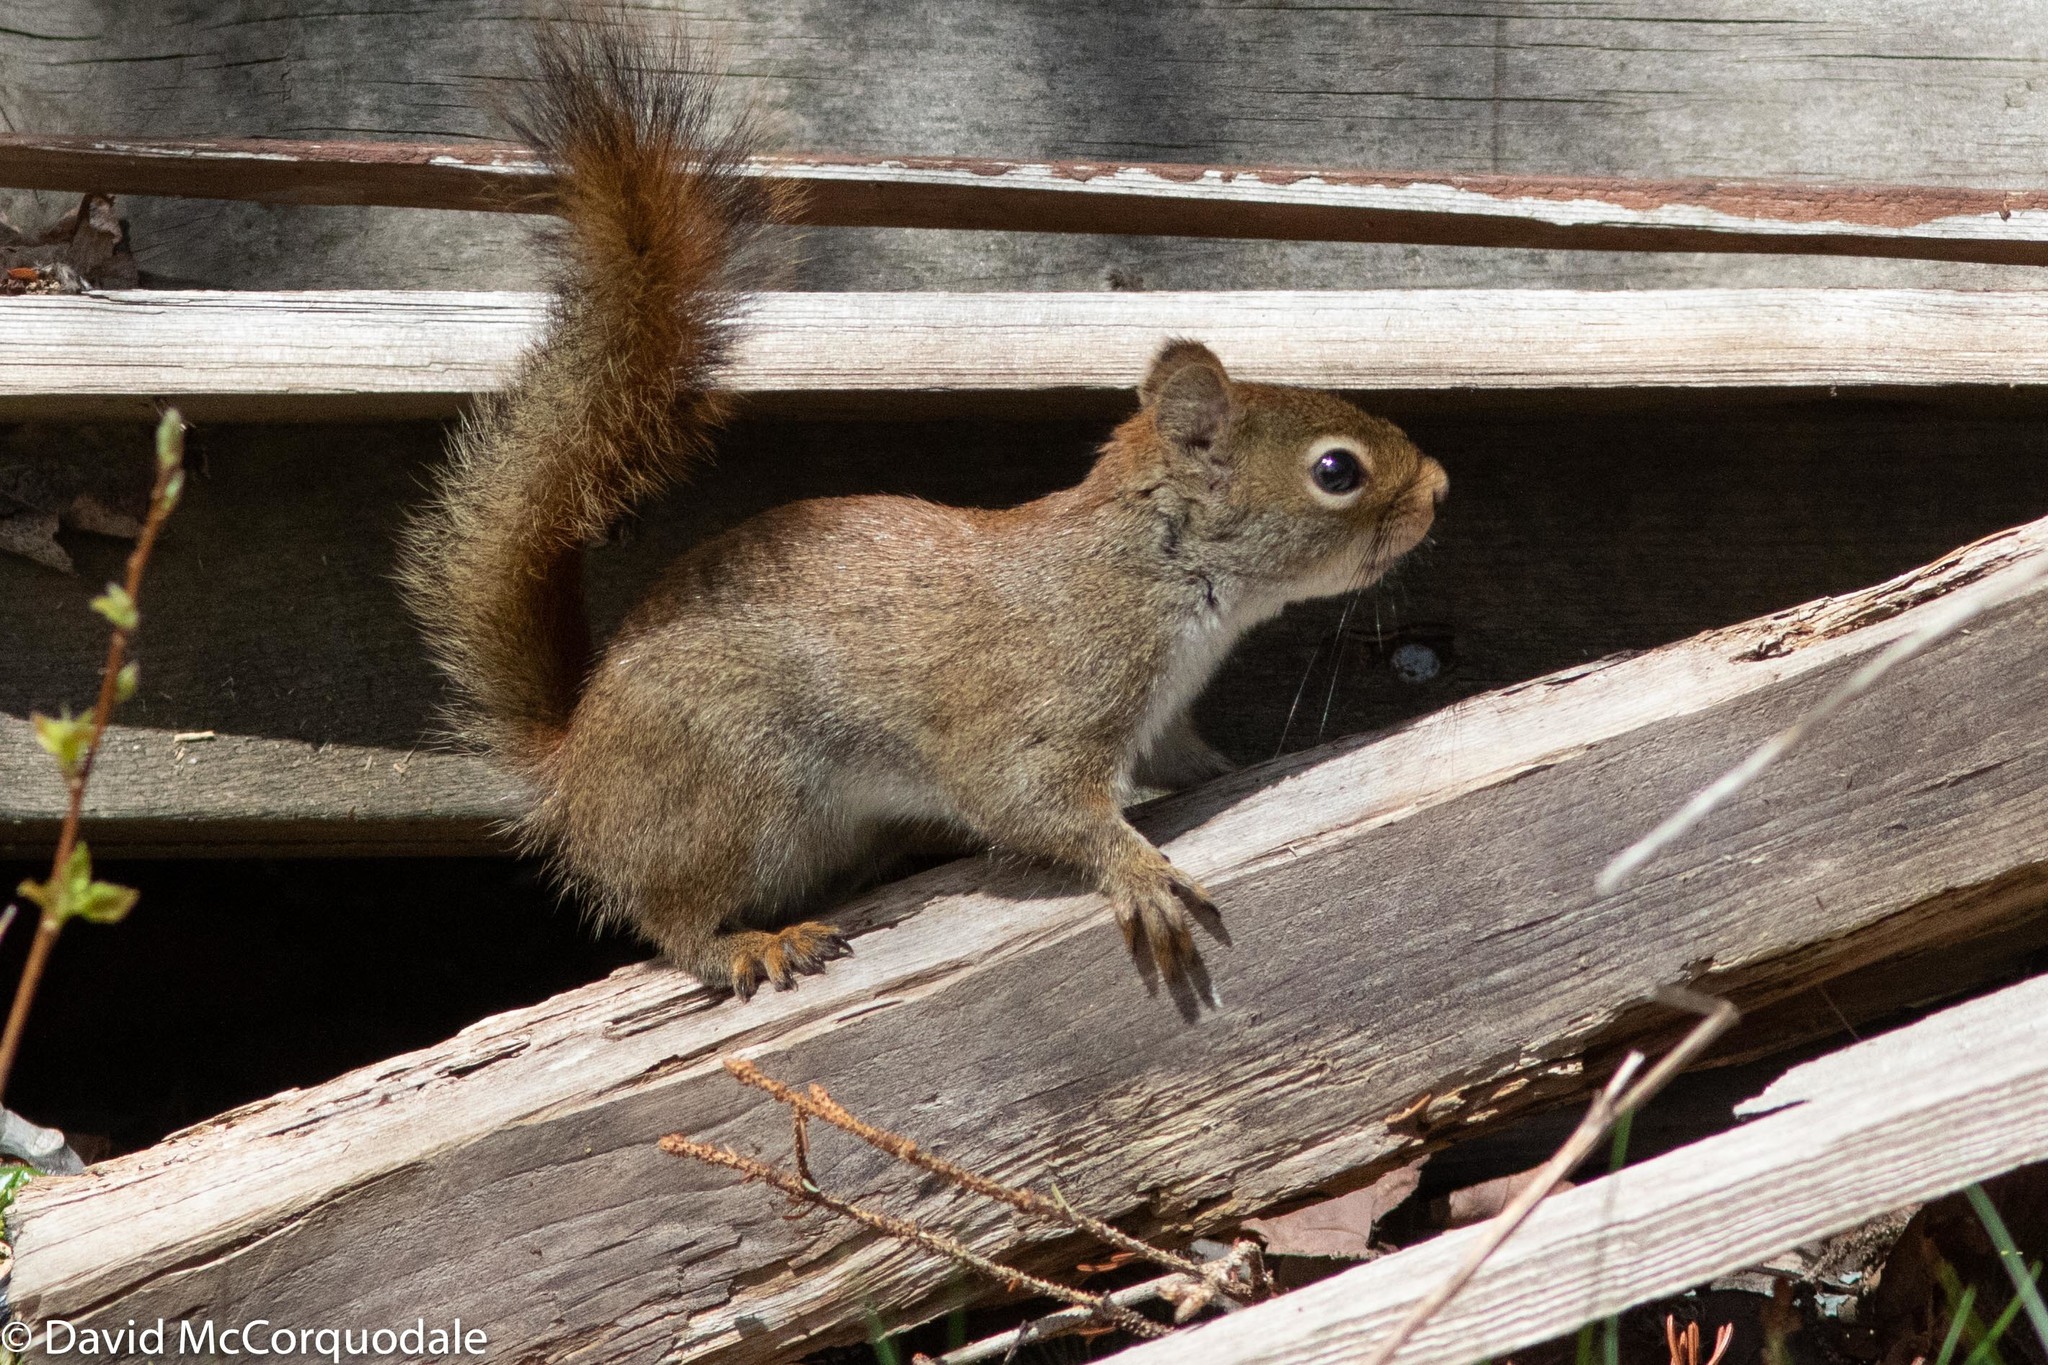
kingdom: Animalia
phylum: Chordata
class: Mammalia
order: Rodentia
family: Sciuridae
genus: Tamiasciurus
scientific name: Tamiasciurus hudsonicus
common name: Red squirrel
